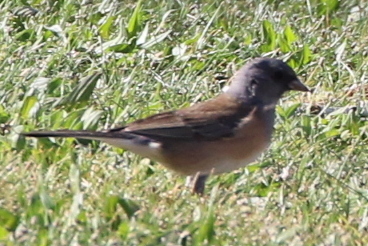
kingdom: Animalia
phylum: Chordata
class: Aves
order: Passeriformes
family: Passerellidae
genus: Junco
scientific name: Junco hyemalis
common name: Dark-eyed junco
